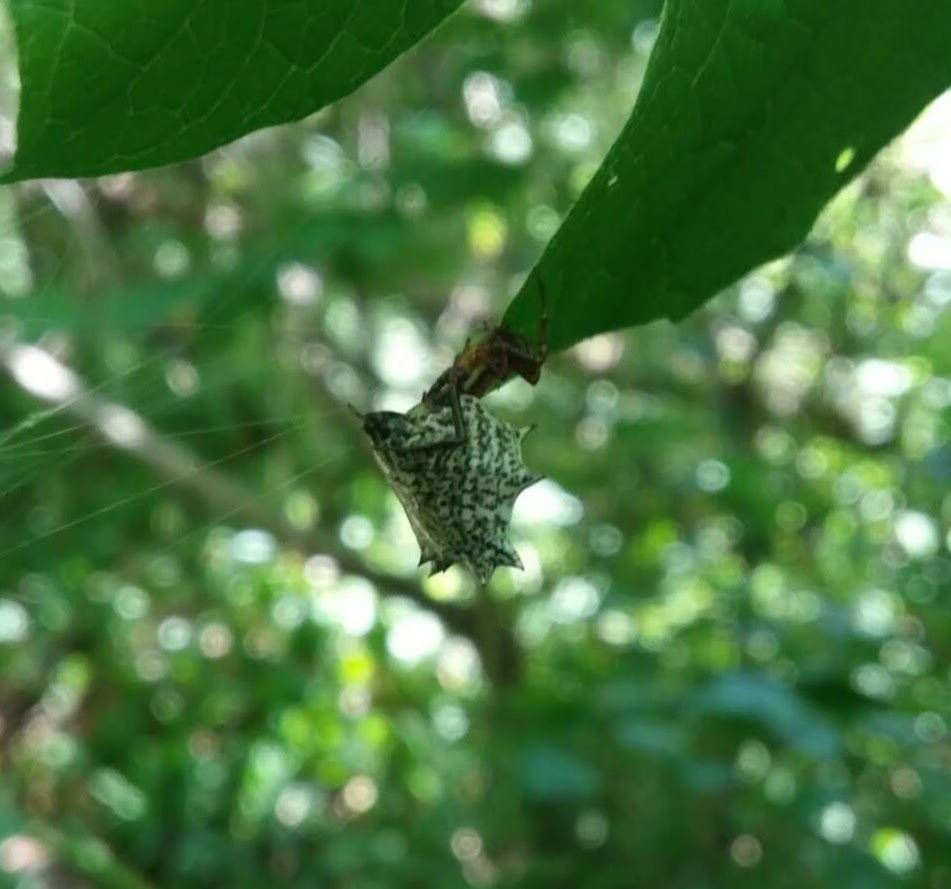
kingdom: Animalia
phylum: Arthropoda
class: Arachnida
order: Araneae
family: Araneidae
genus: Micrathena
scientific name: Micrathena gracilis
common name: Orb weavers
